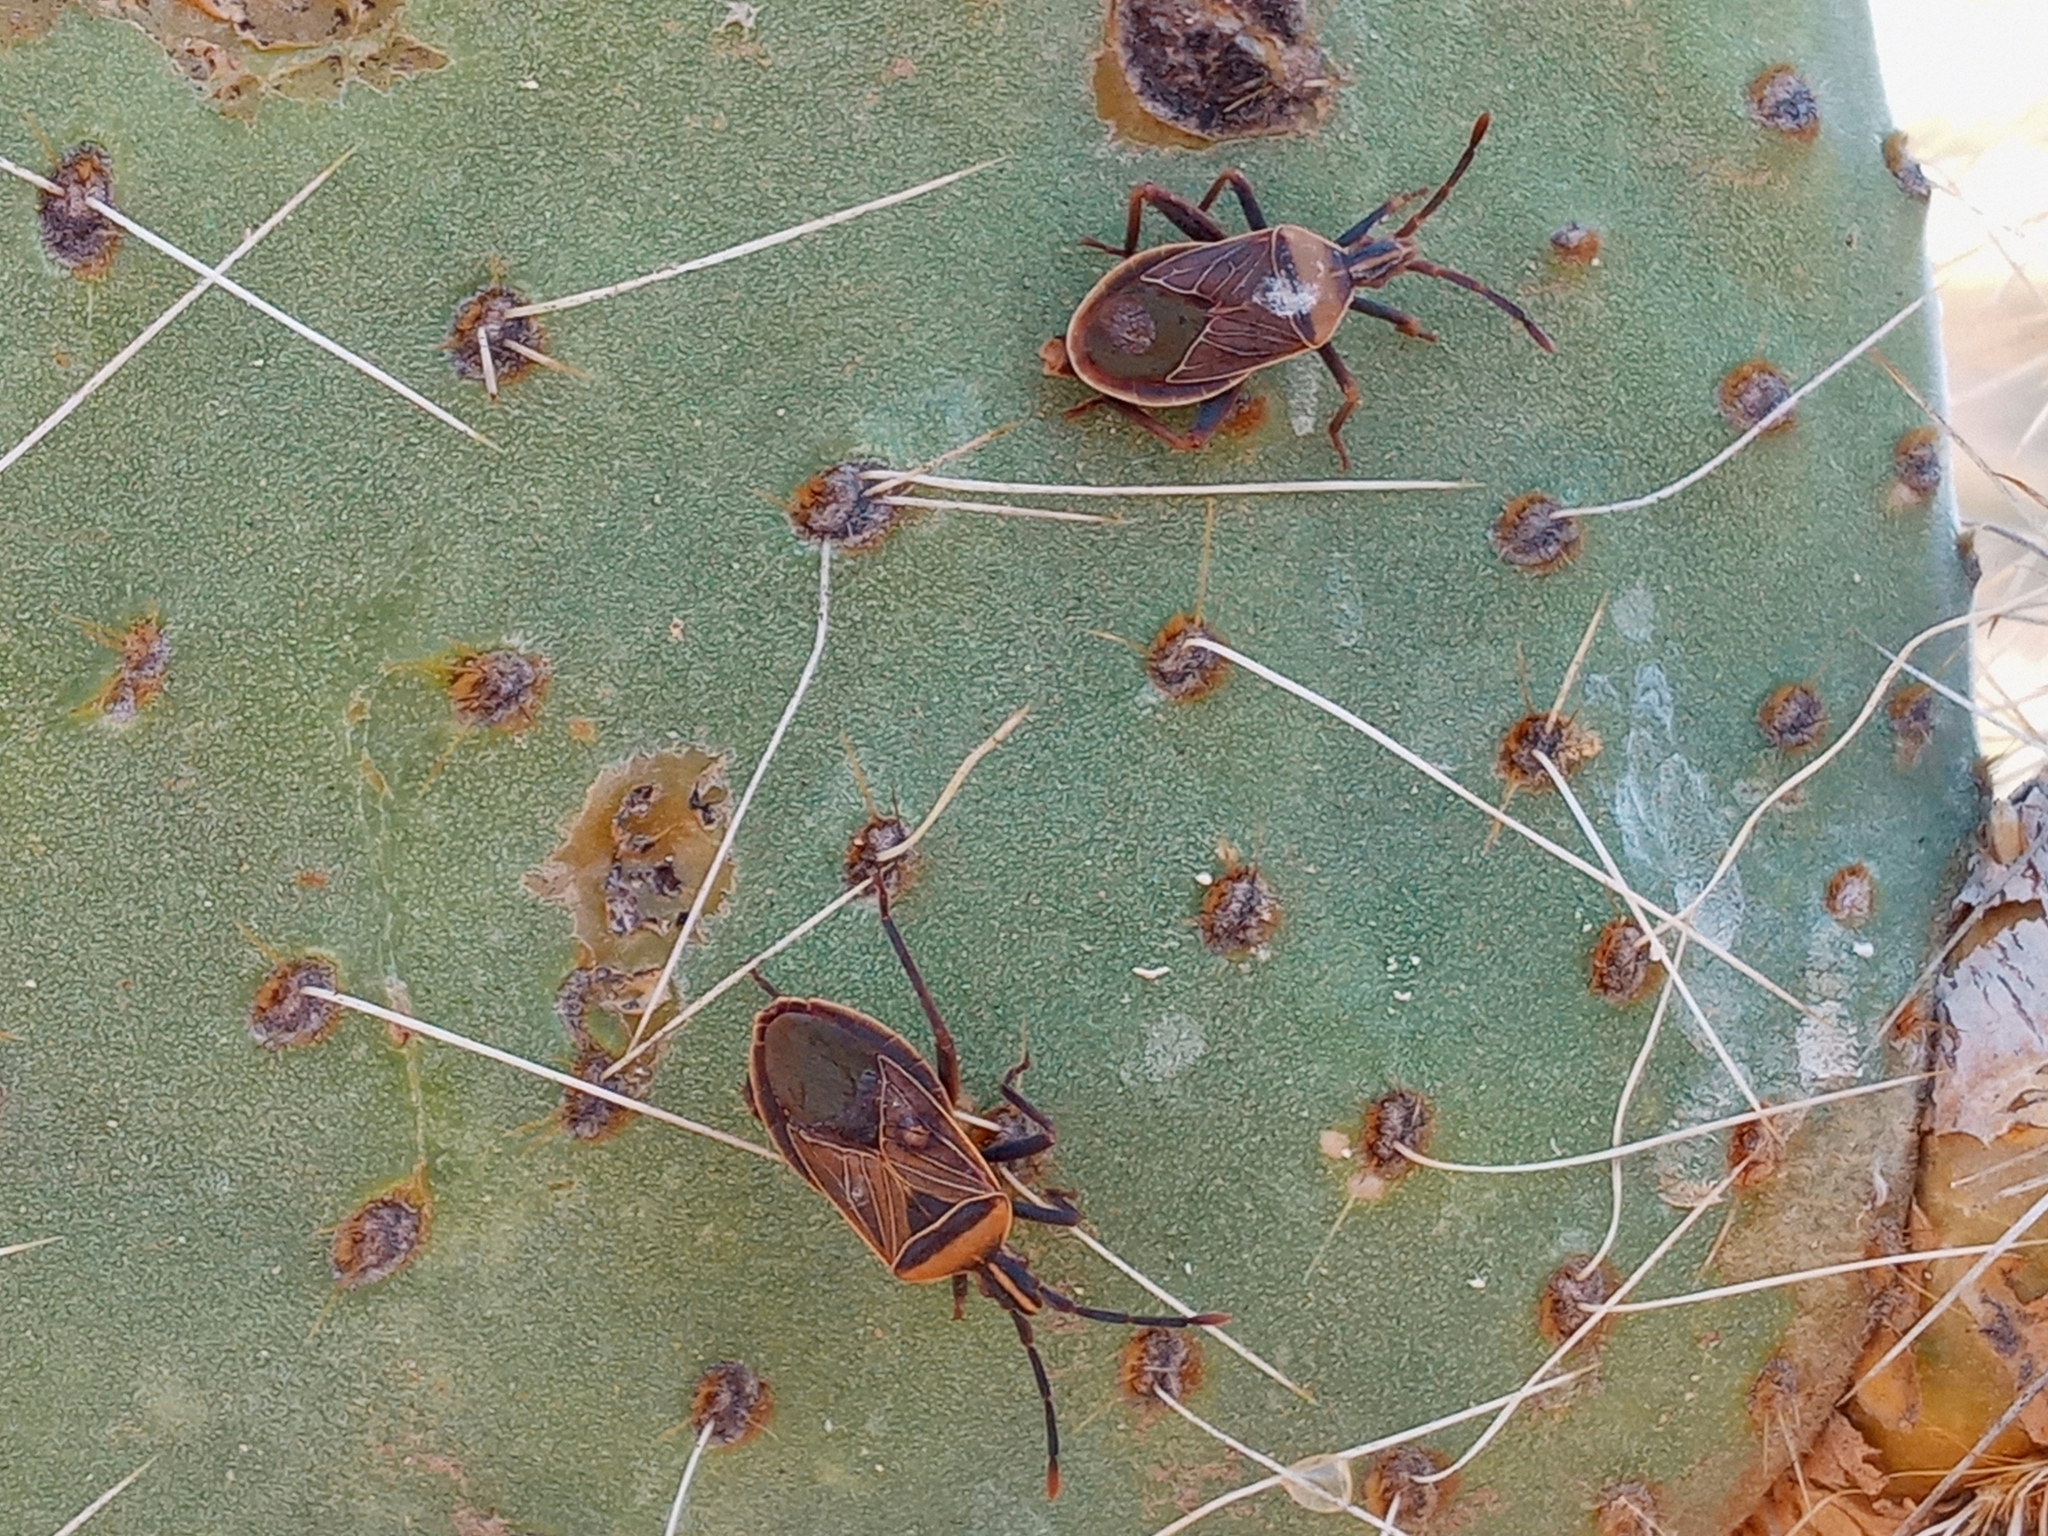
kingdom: Animalia
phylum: Arthropoda
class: Insecta
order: Hemiptera
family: Coreidae
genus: Chelinidea
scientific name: Chelinidea vittiger
